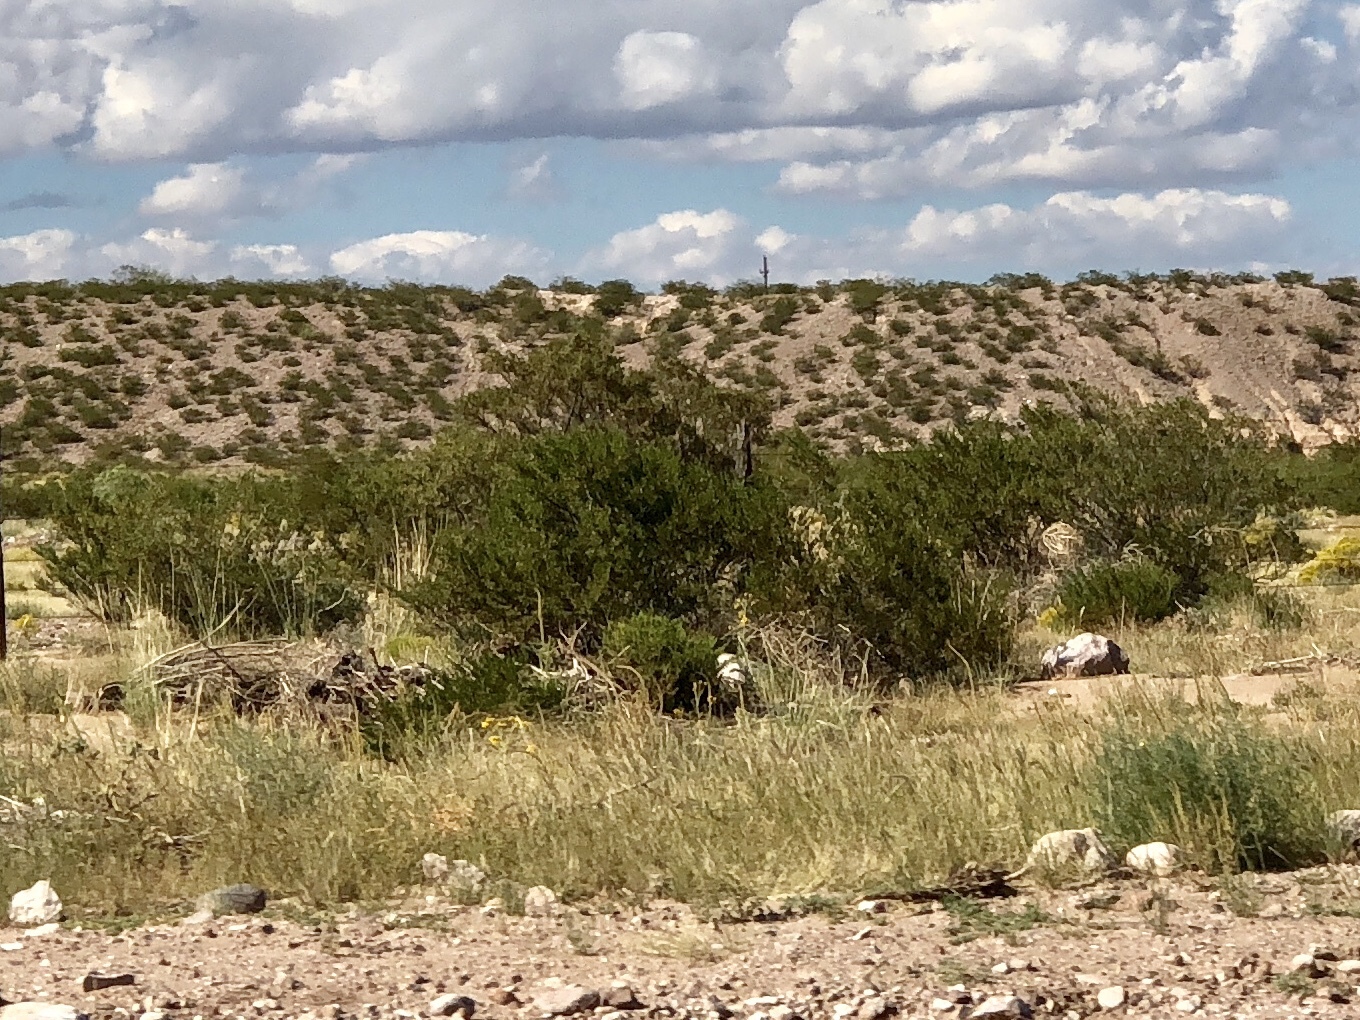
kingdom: Plantae
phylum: Tracheophyta
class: Magnoliopsida
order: Zygophyllales
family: Zygophyllaceae
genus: Larrea
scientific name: Larrea tridentata
